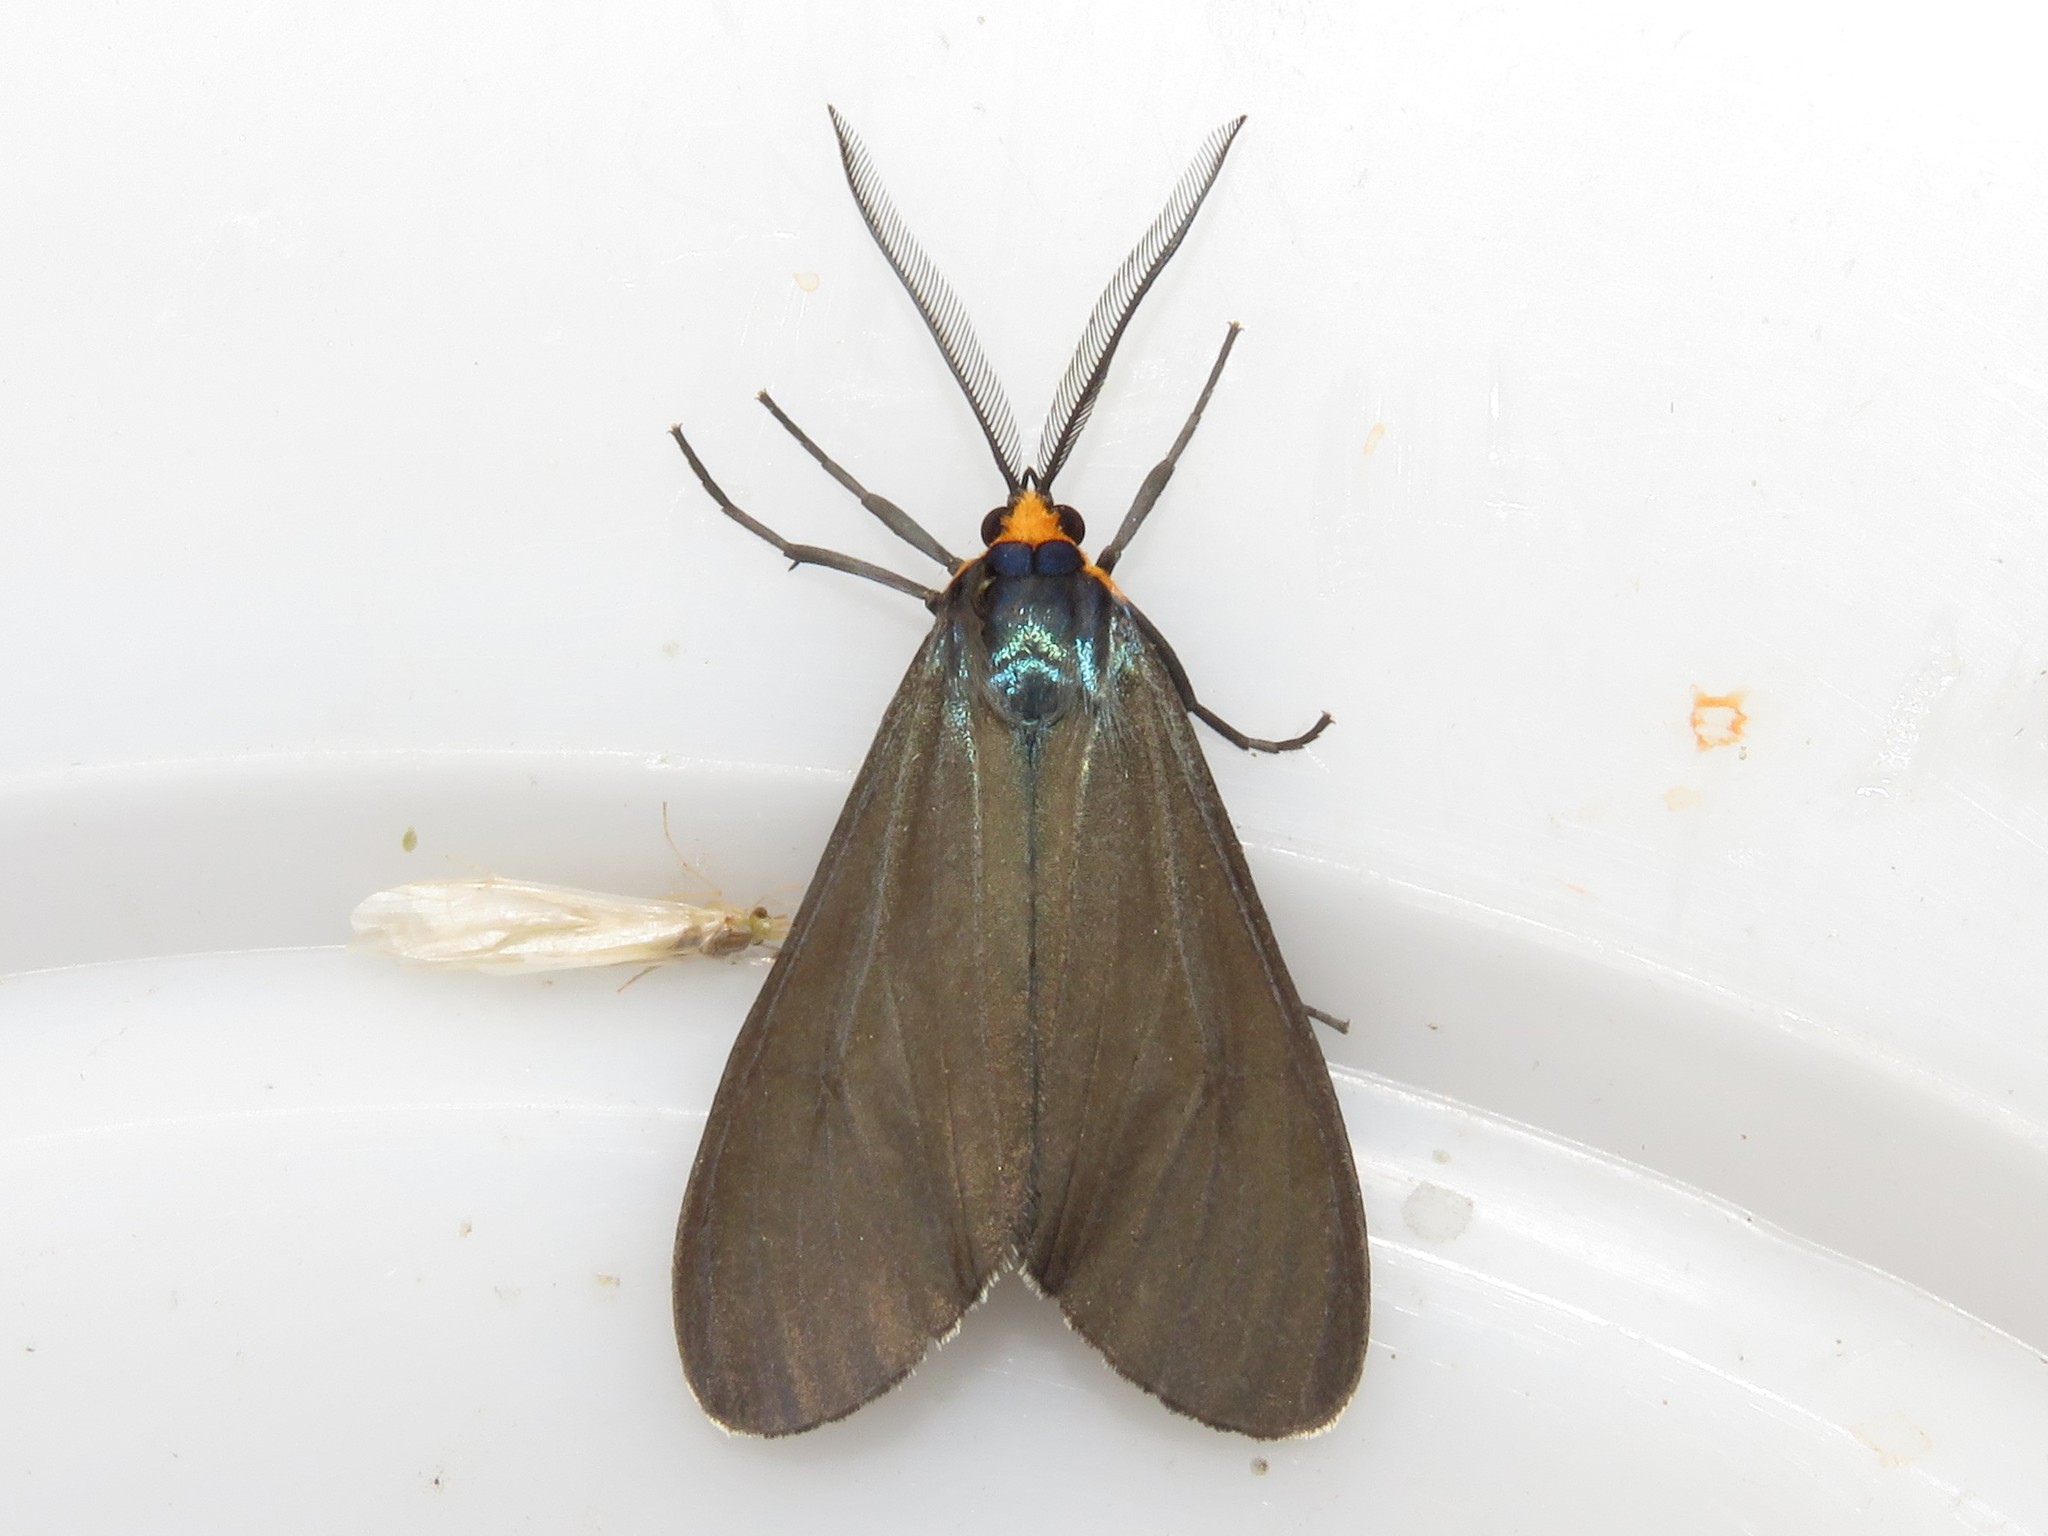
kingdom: Animalia
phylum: Arthropoda
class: Insecta
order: Lepidoptera
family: Erebidae
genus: Ctenucha
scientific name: Ctenucha virginica
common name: Virginia ctenucha moth
